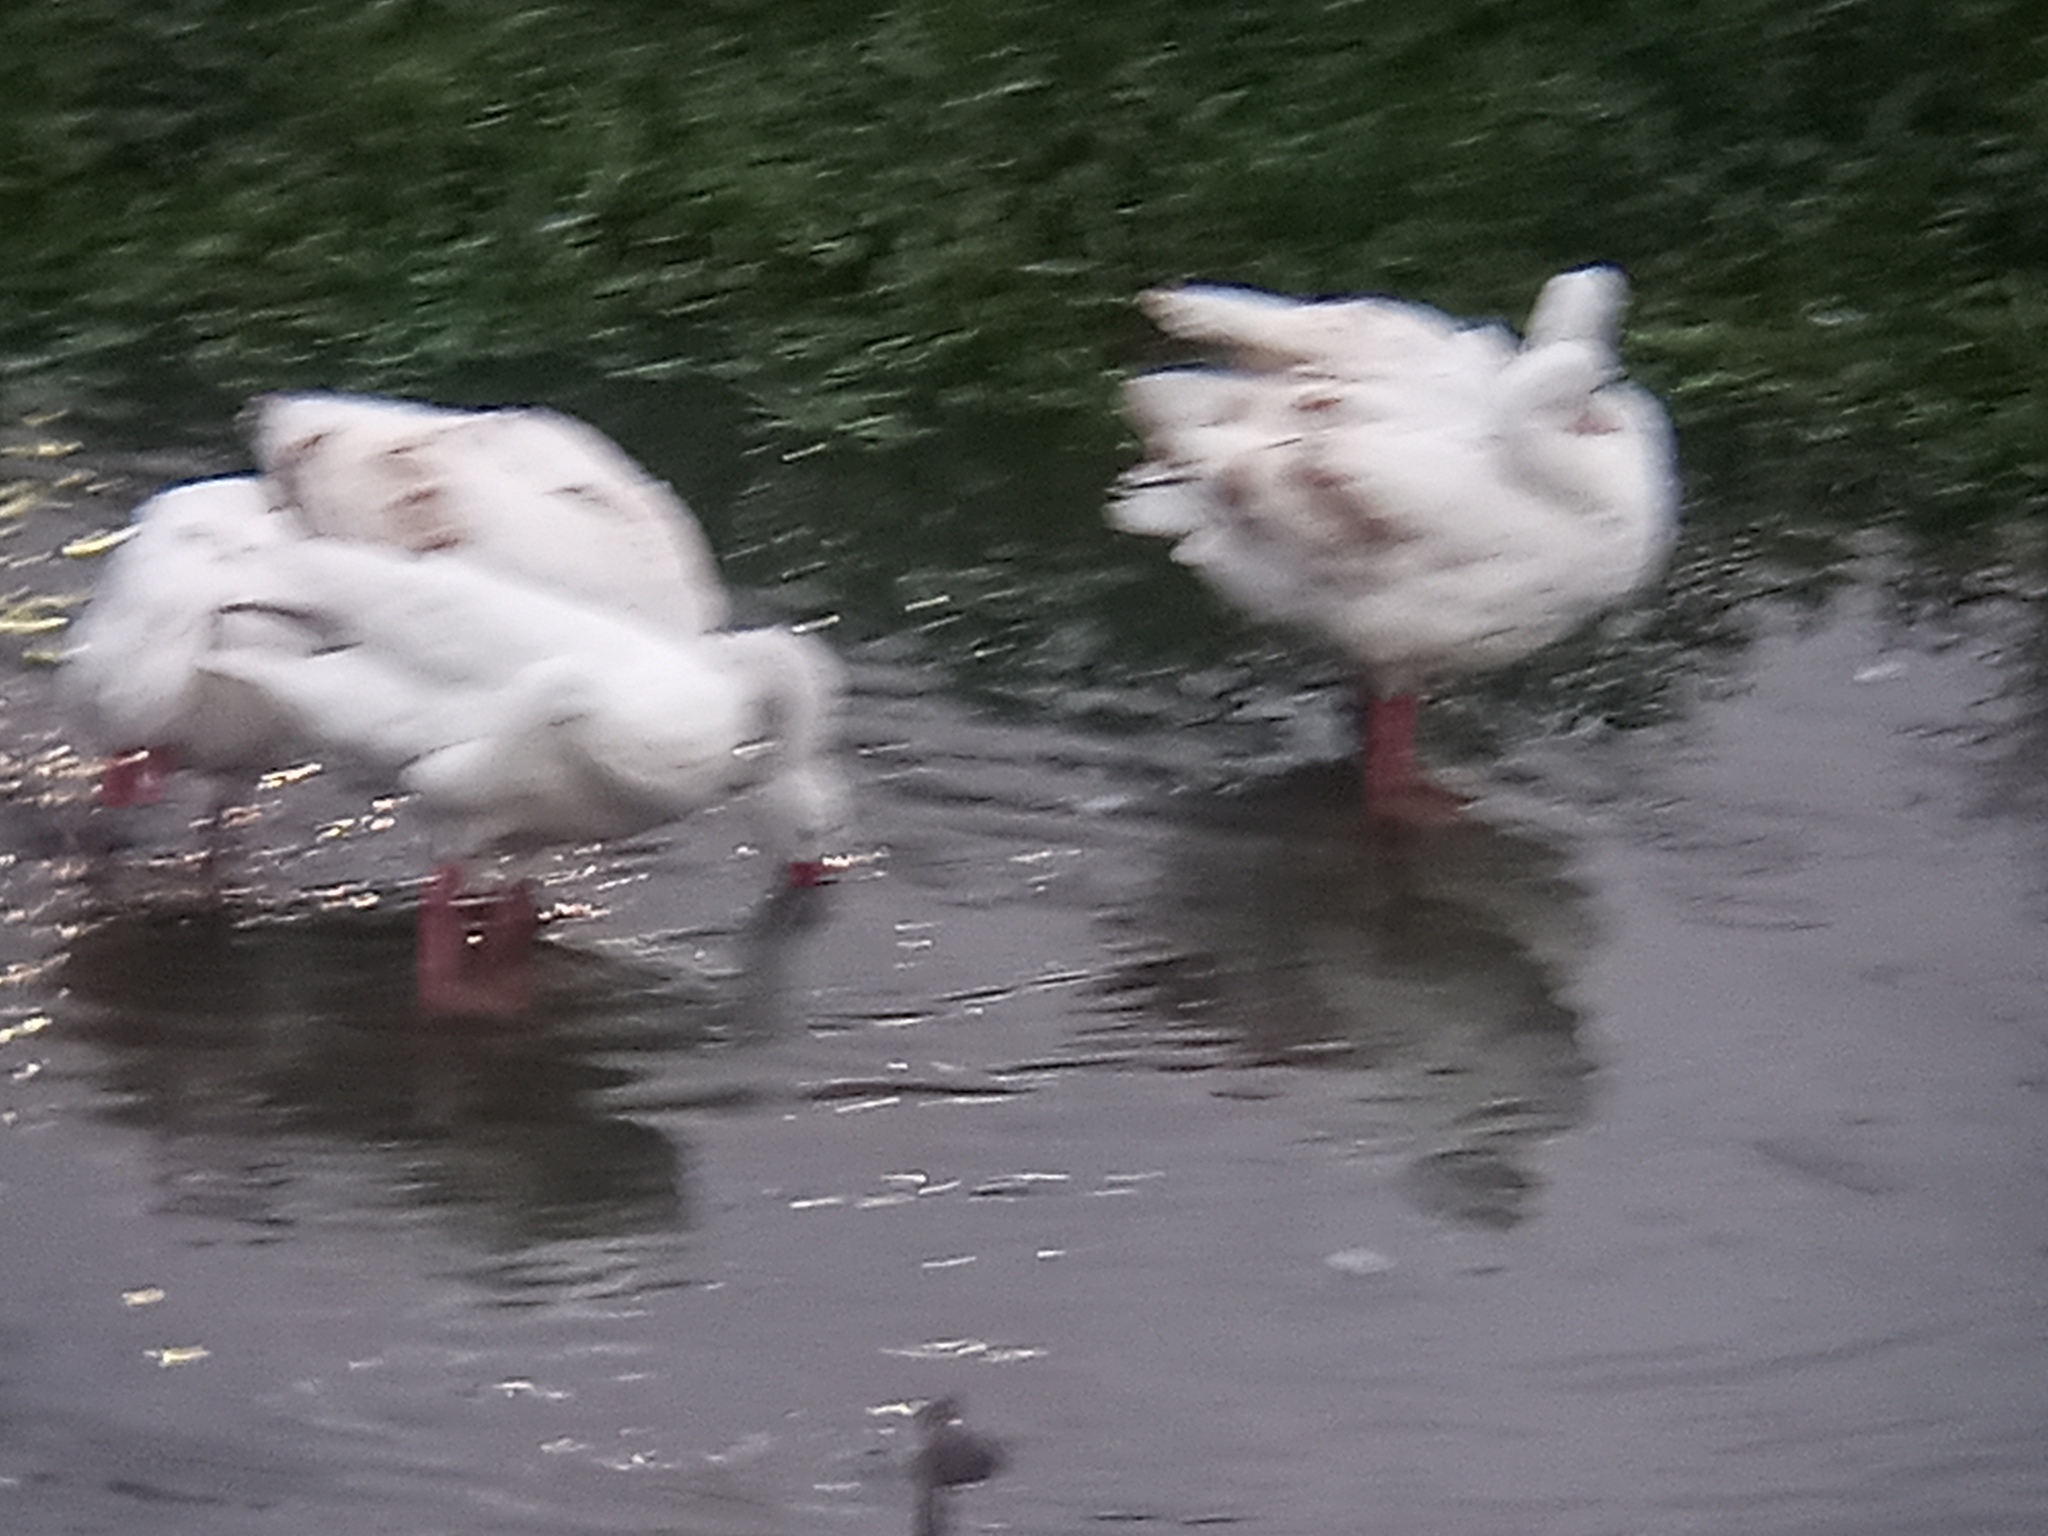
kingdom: Animalia
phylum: Chordata
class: Aves
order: Anseriformes
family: Anatidae
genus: Coscoroba
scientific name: Coscoroba coscoroba
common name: Coscoroba swan
